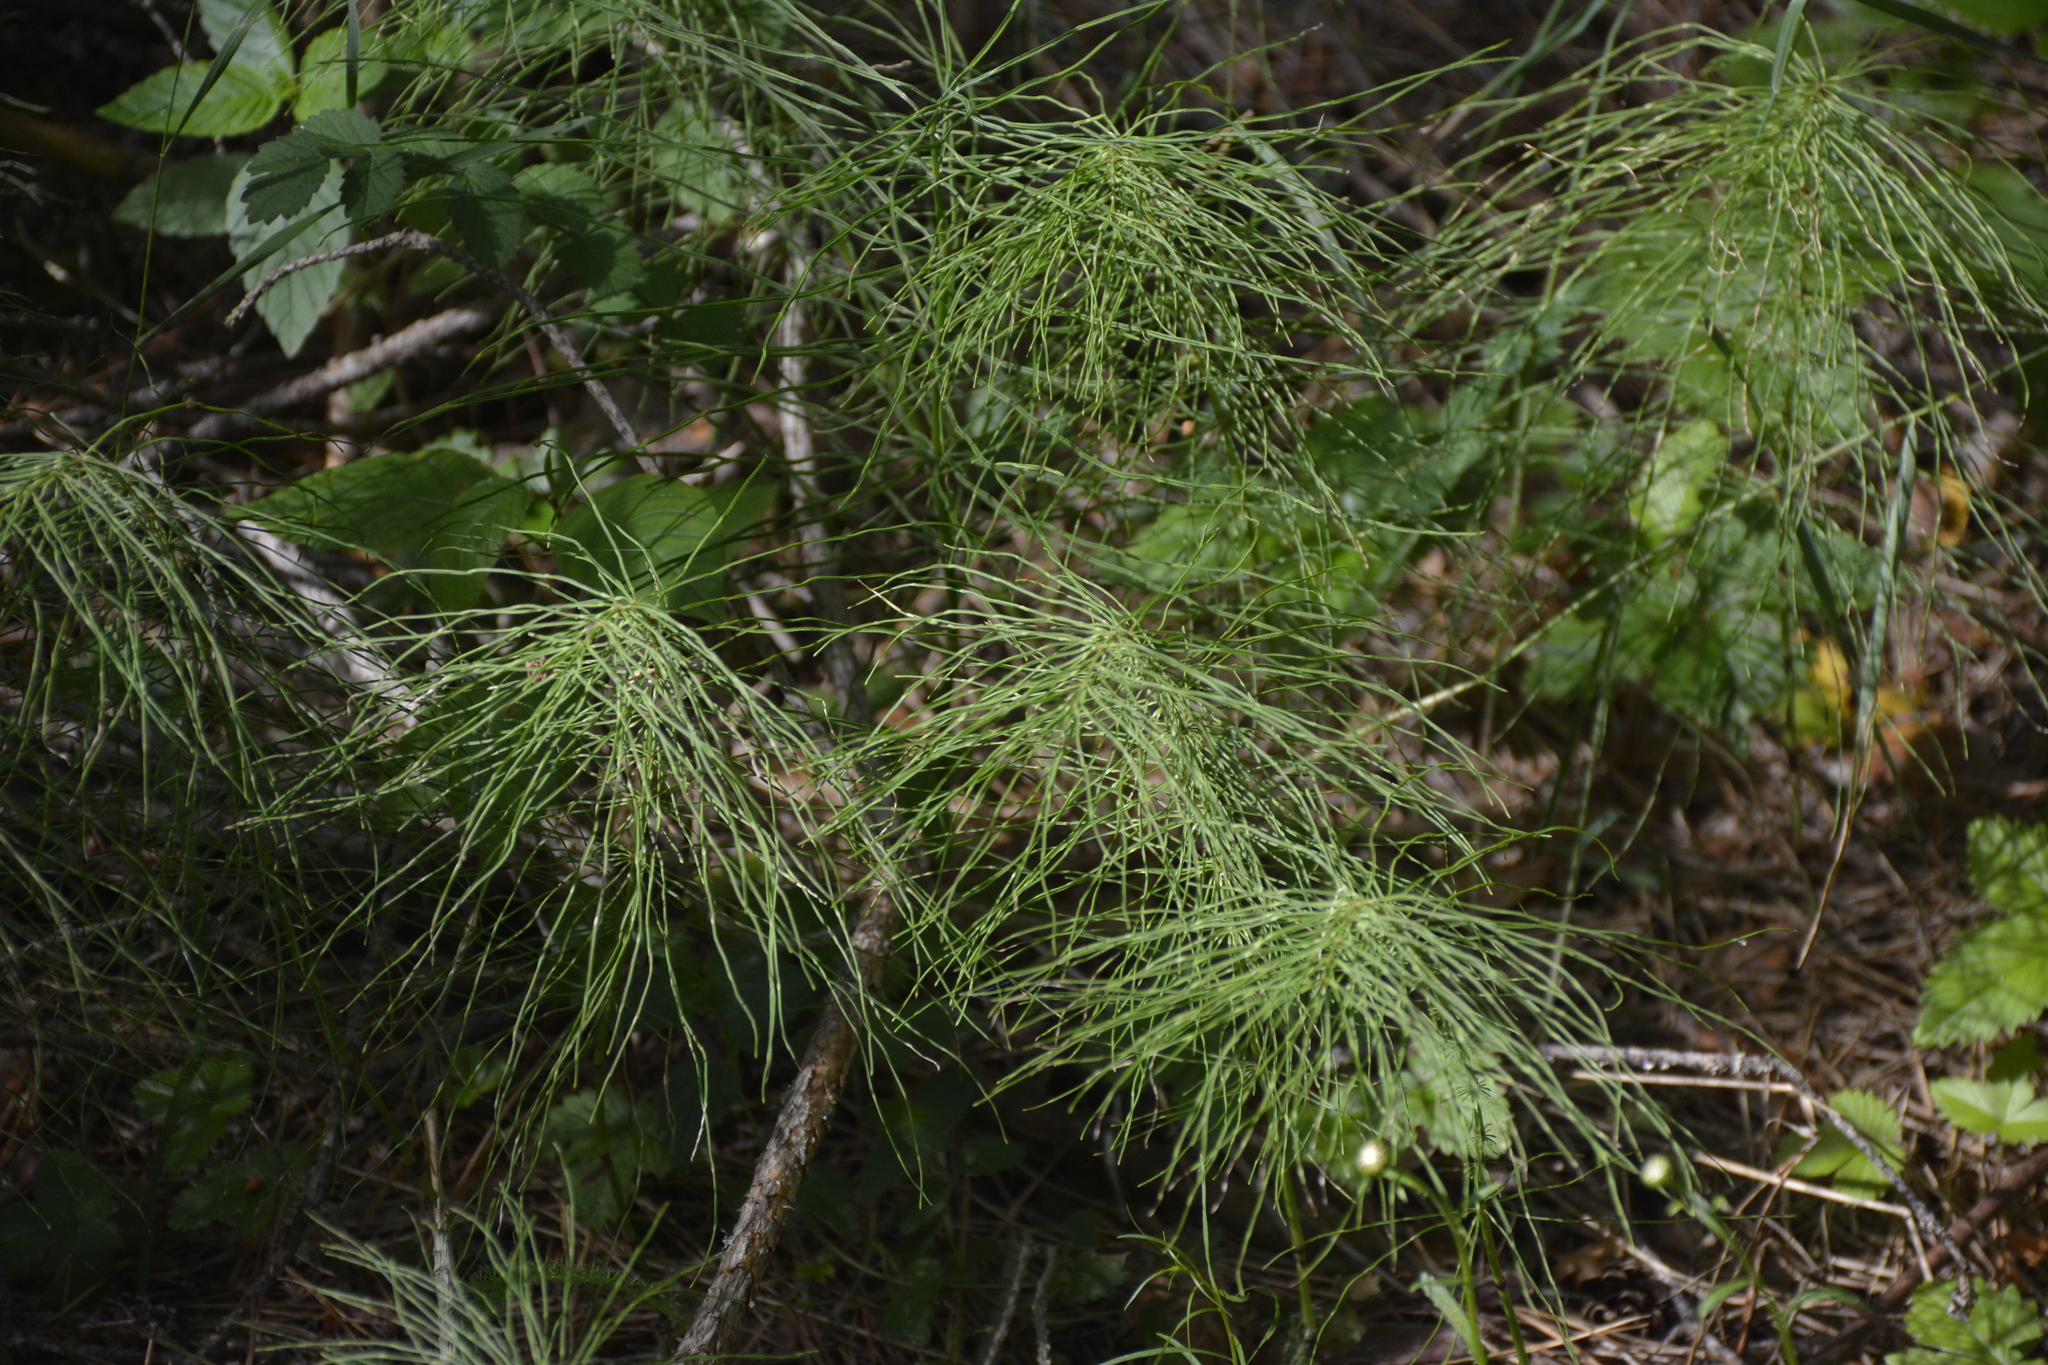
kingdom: Plantae
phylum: Tracheophyta
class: Polypodiopsida
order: Equisetales
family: Equisetaceae
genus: Equisetum
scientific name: Equisetum pratense
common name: Meadow horsetail
